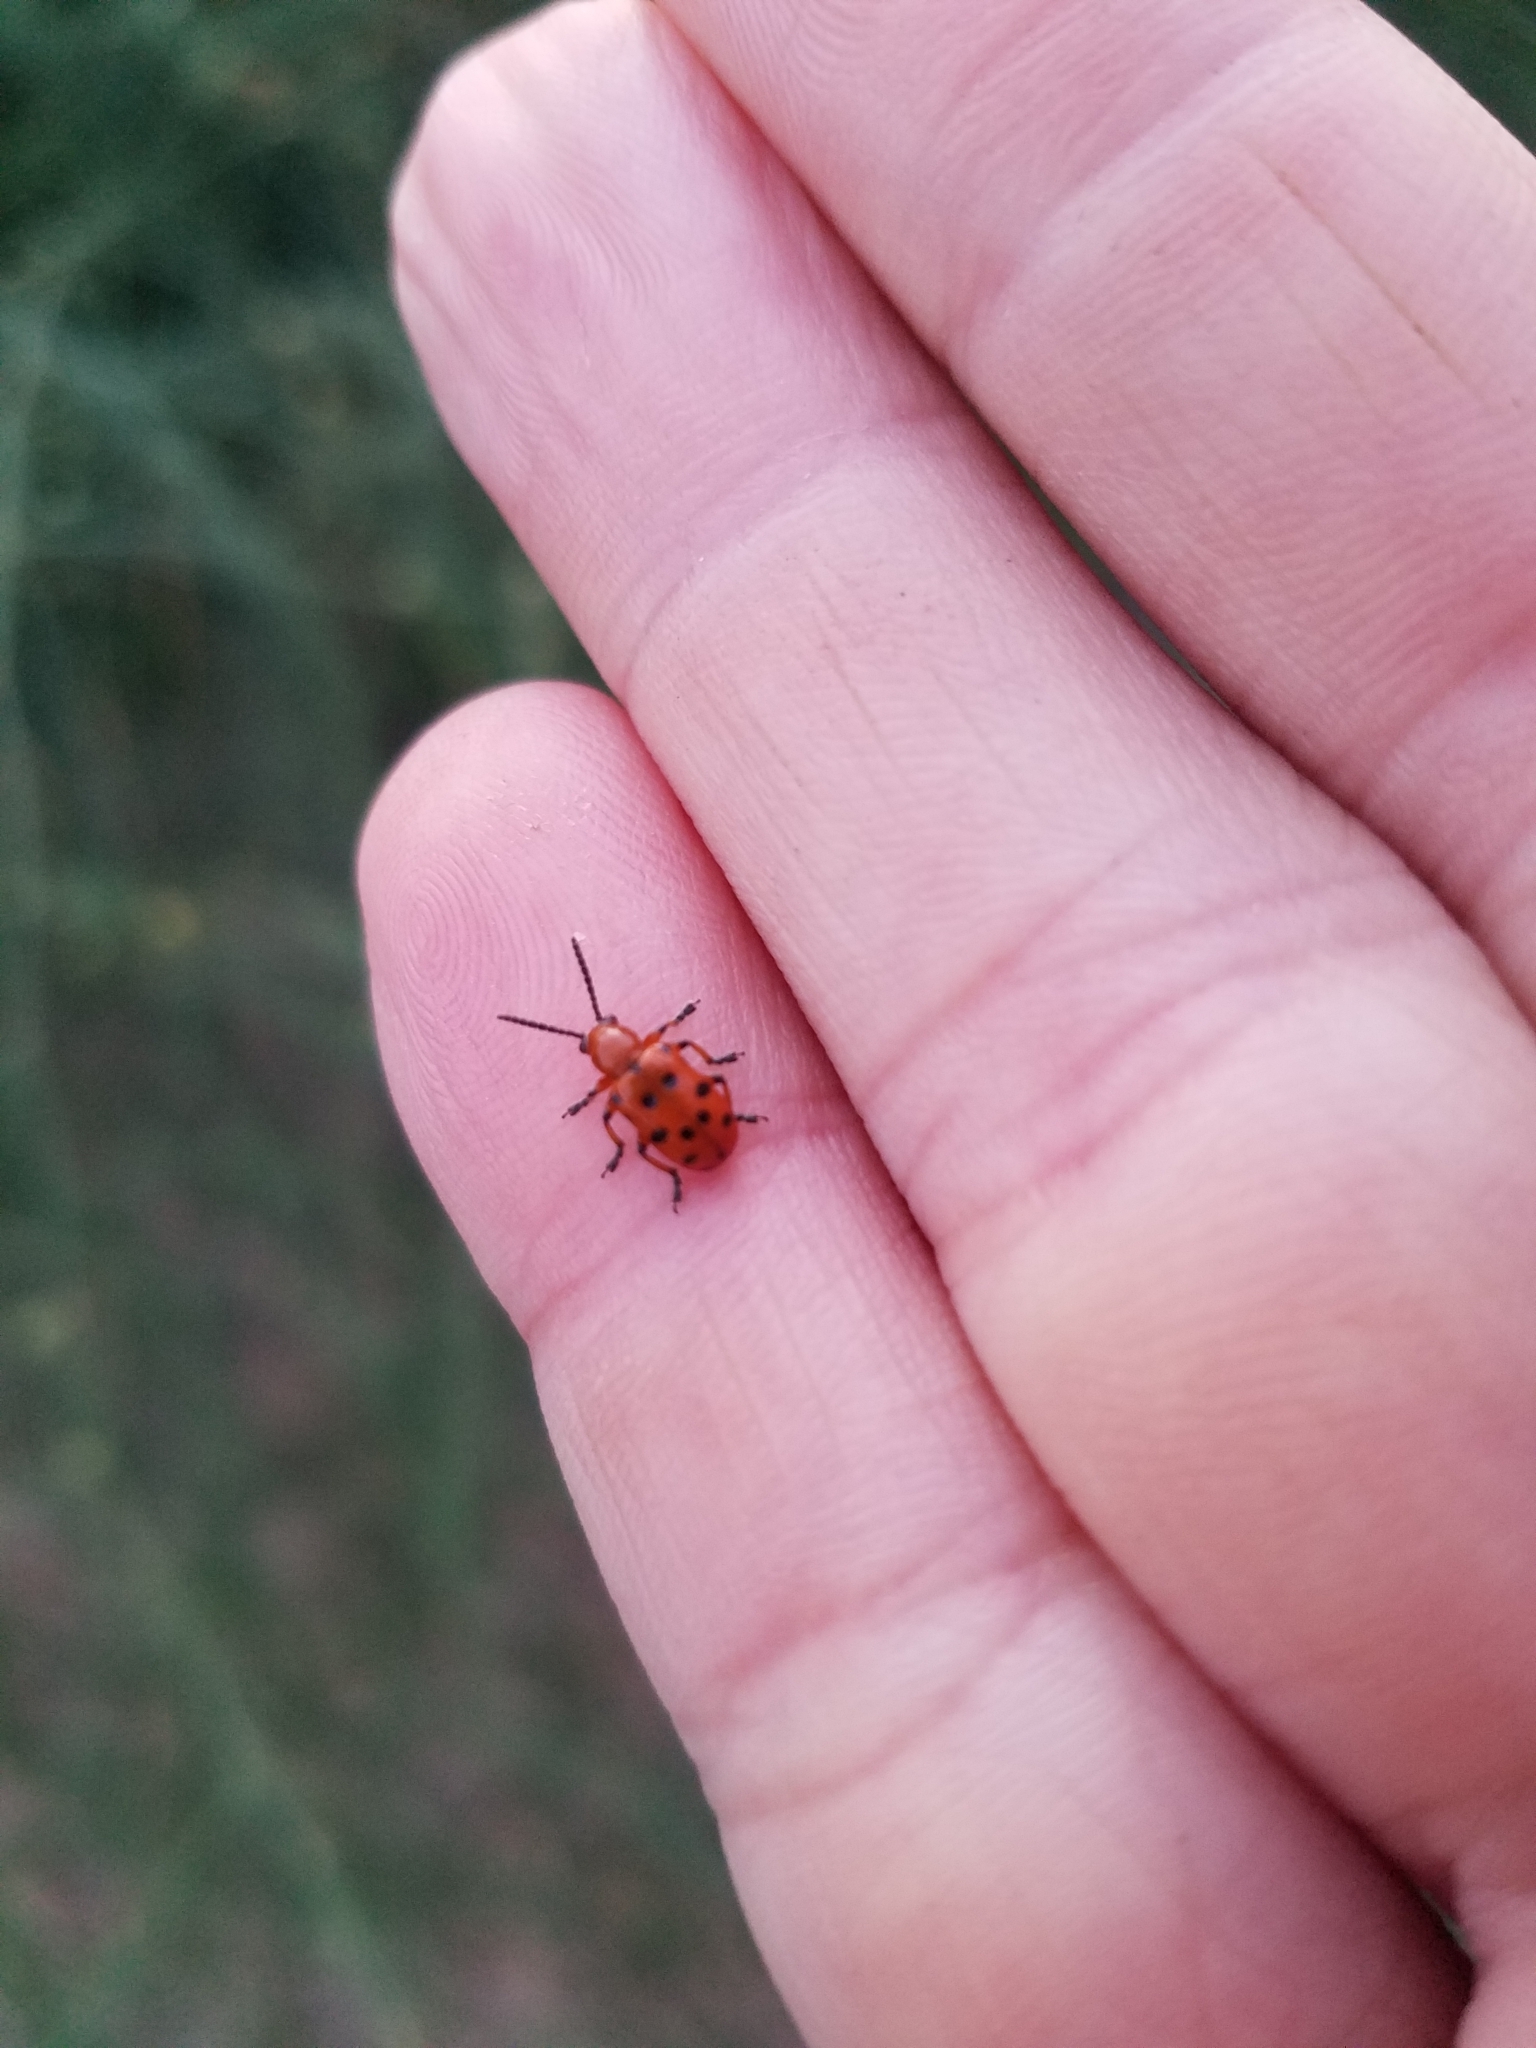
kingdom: Animalia
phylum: Arthropoda
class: Insecta
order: Coleoptera
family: Chrysomelidae
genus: Crioceris
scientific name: Crioceris duodecimpunctata
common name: Twelve-spotted asparagus beetle
